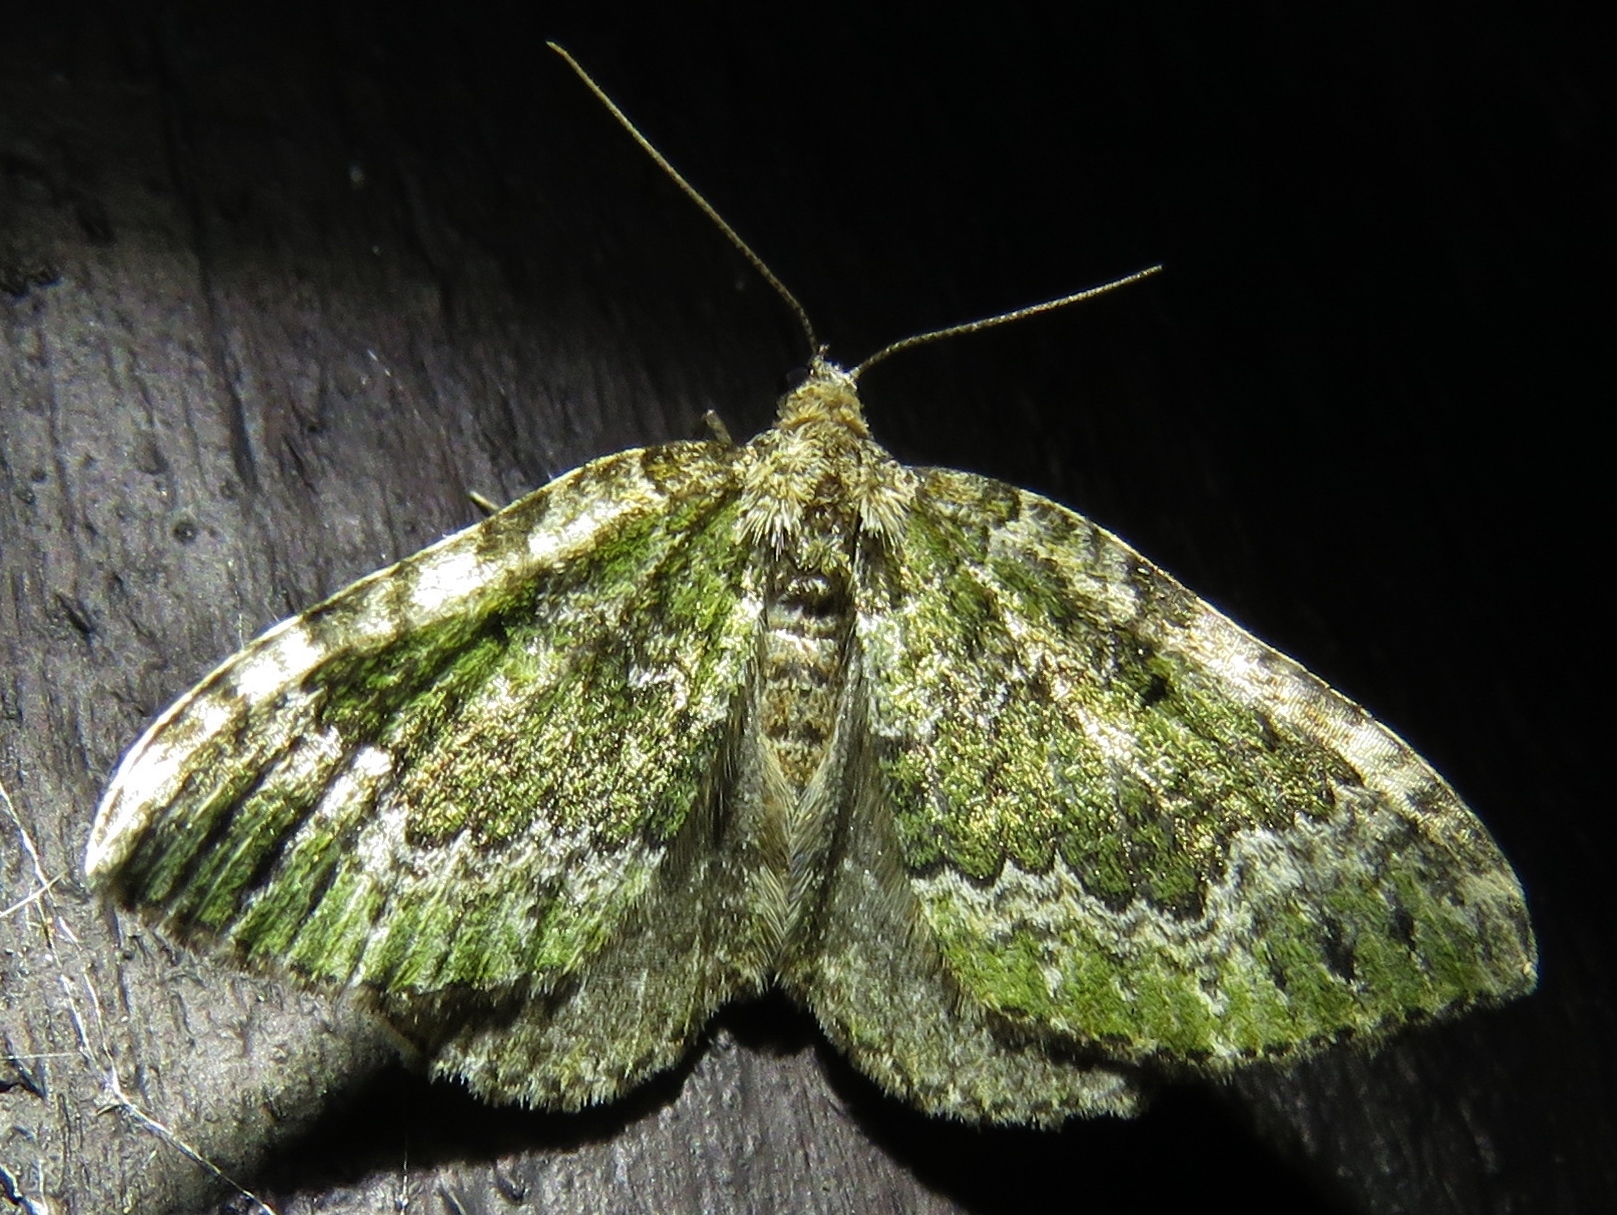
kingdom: Animalia
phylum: Arthropoda
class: Insecta
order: Lepidoptera
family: Geometridae
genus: Colostygia
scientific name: Colostygia olivata
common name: Beech-green carpet
